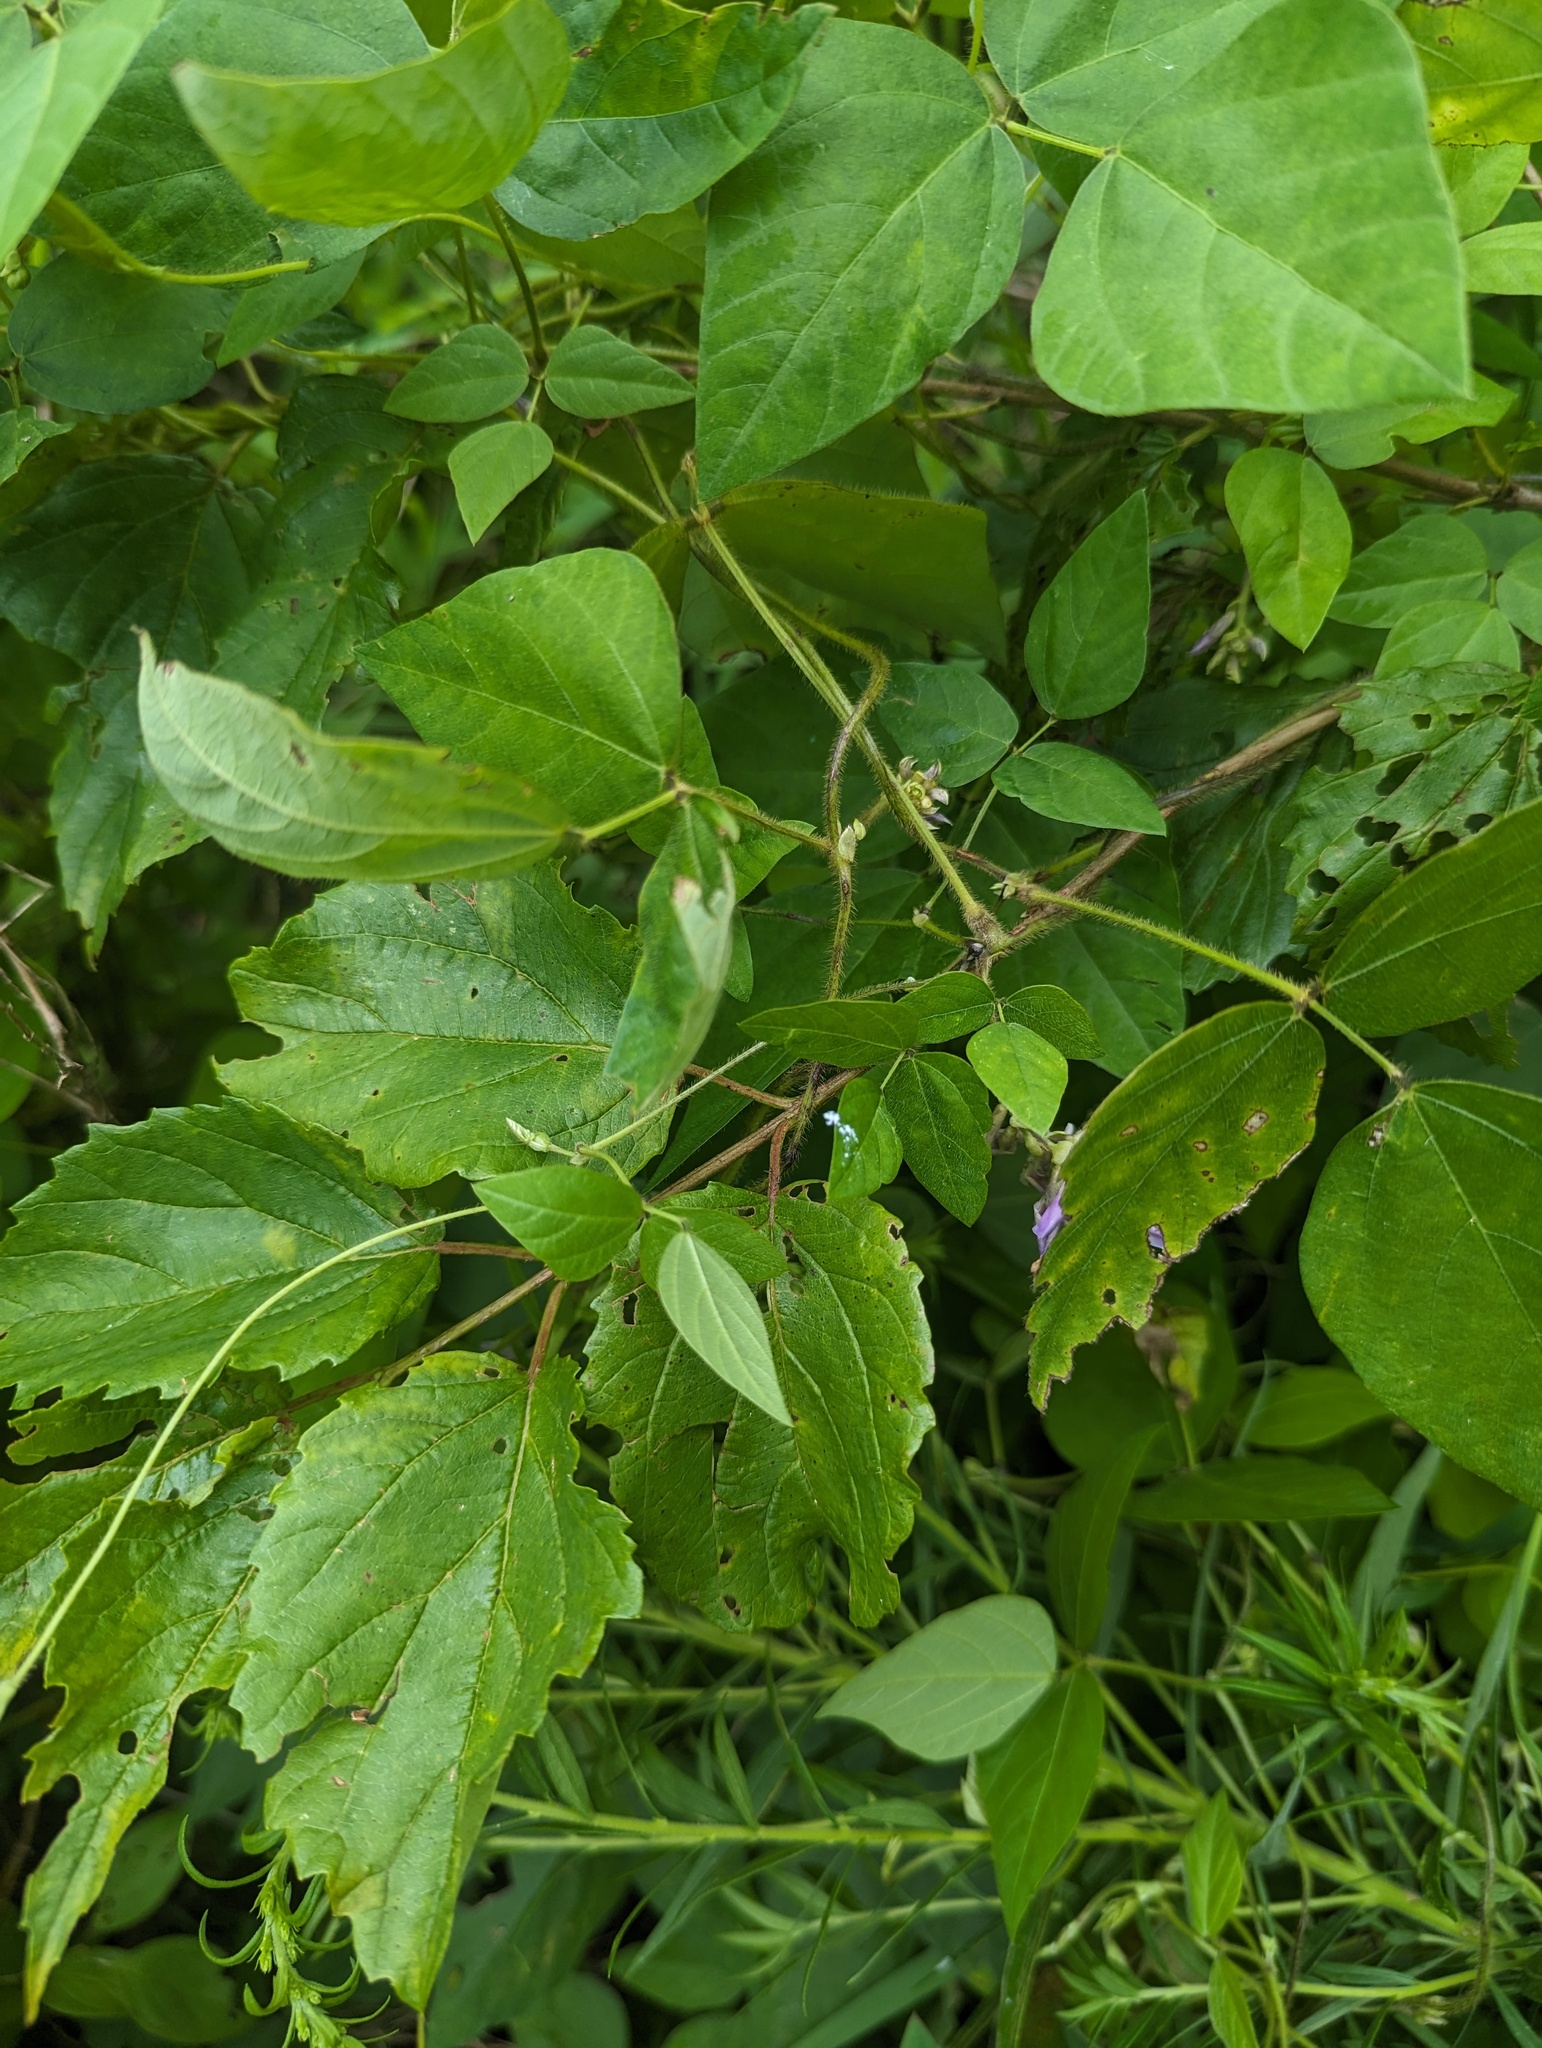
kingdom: Plantae
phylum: Tracheophyta
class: Magnoliopsida
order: Fabales
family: Fabaceae
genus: Amphicarpaea
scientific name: Amphicarpaea bracteata
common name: American hog peanut
